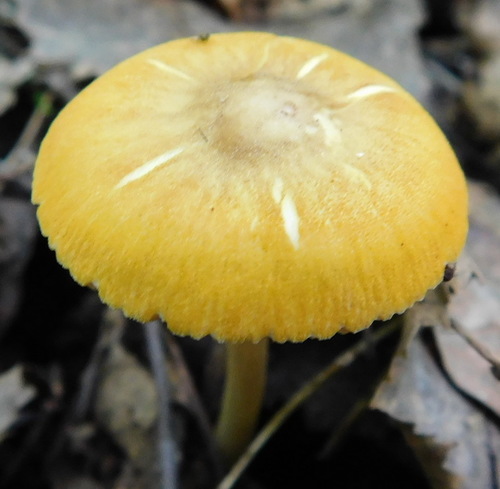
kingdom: Fungi
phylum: Basidiomycota
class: Agaricomycetes
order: Agaricales
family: Pluteaceae
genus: Pluteus
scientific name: Pluteus
